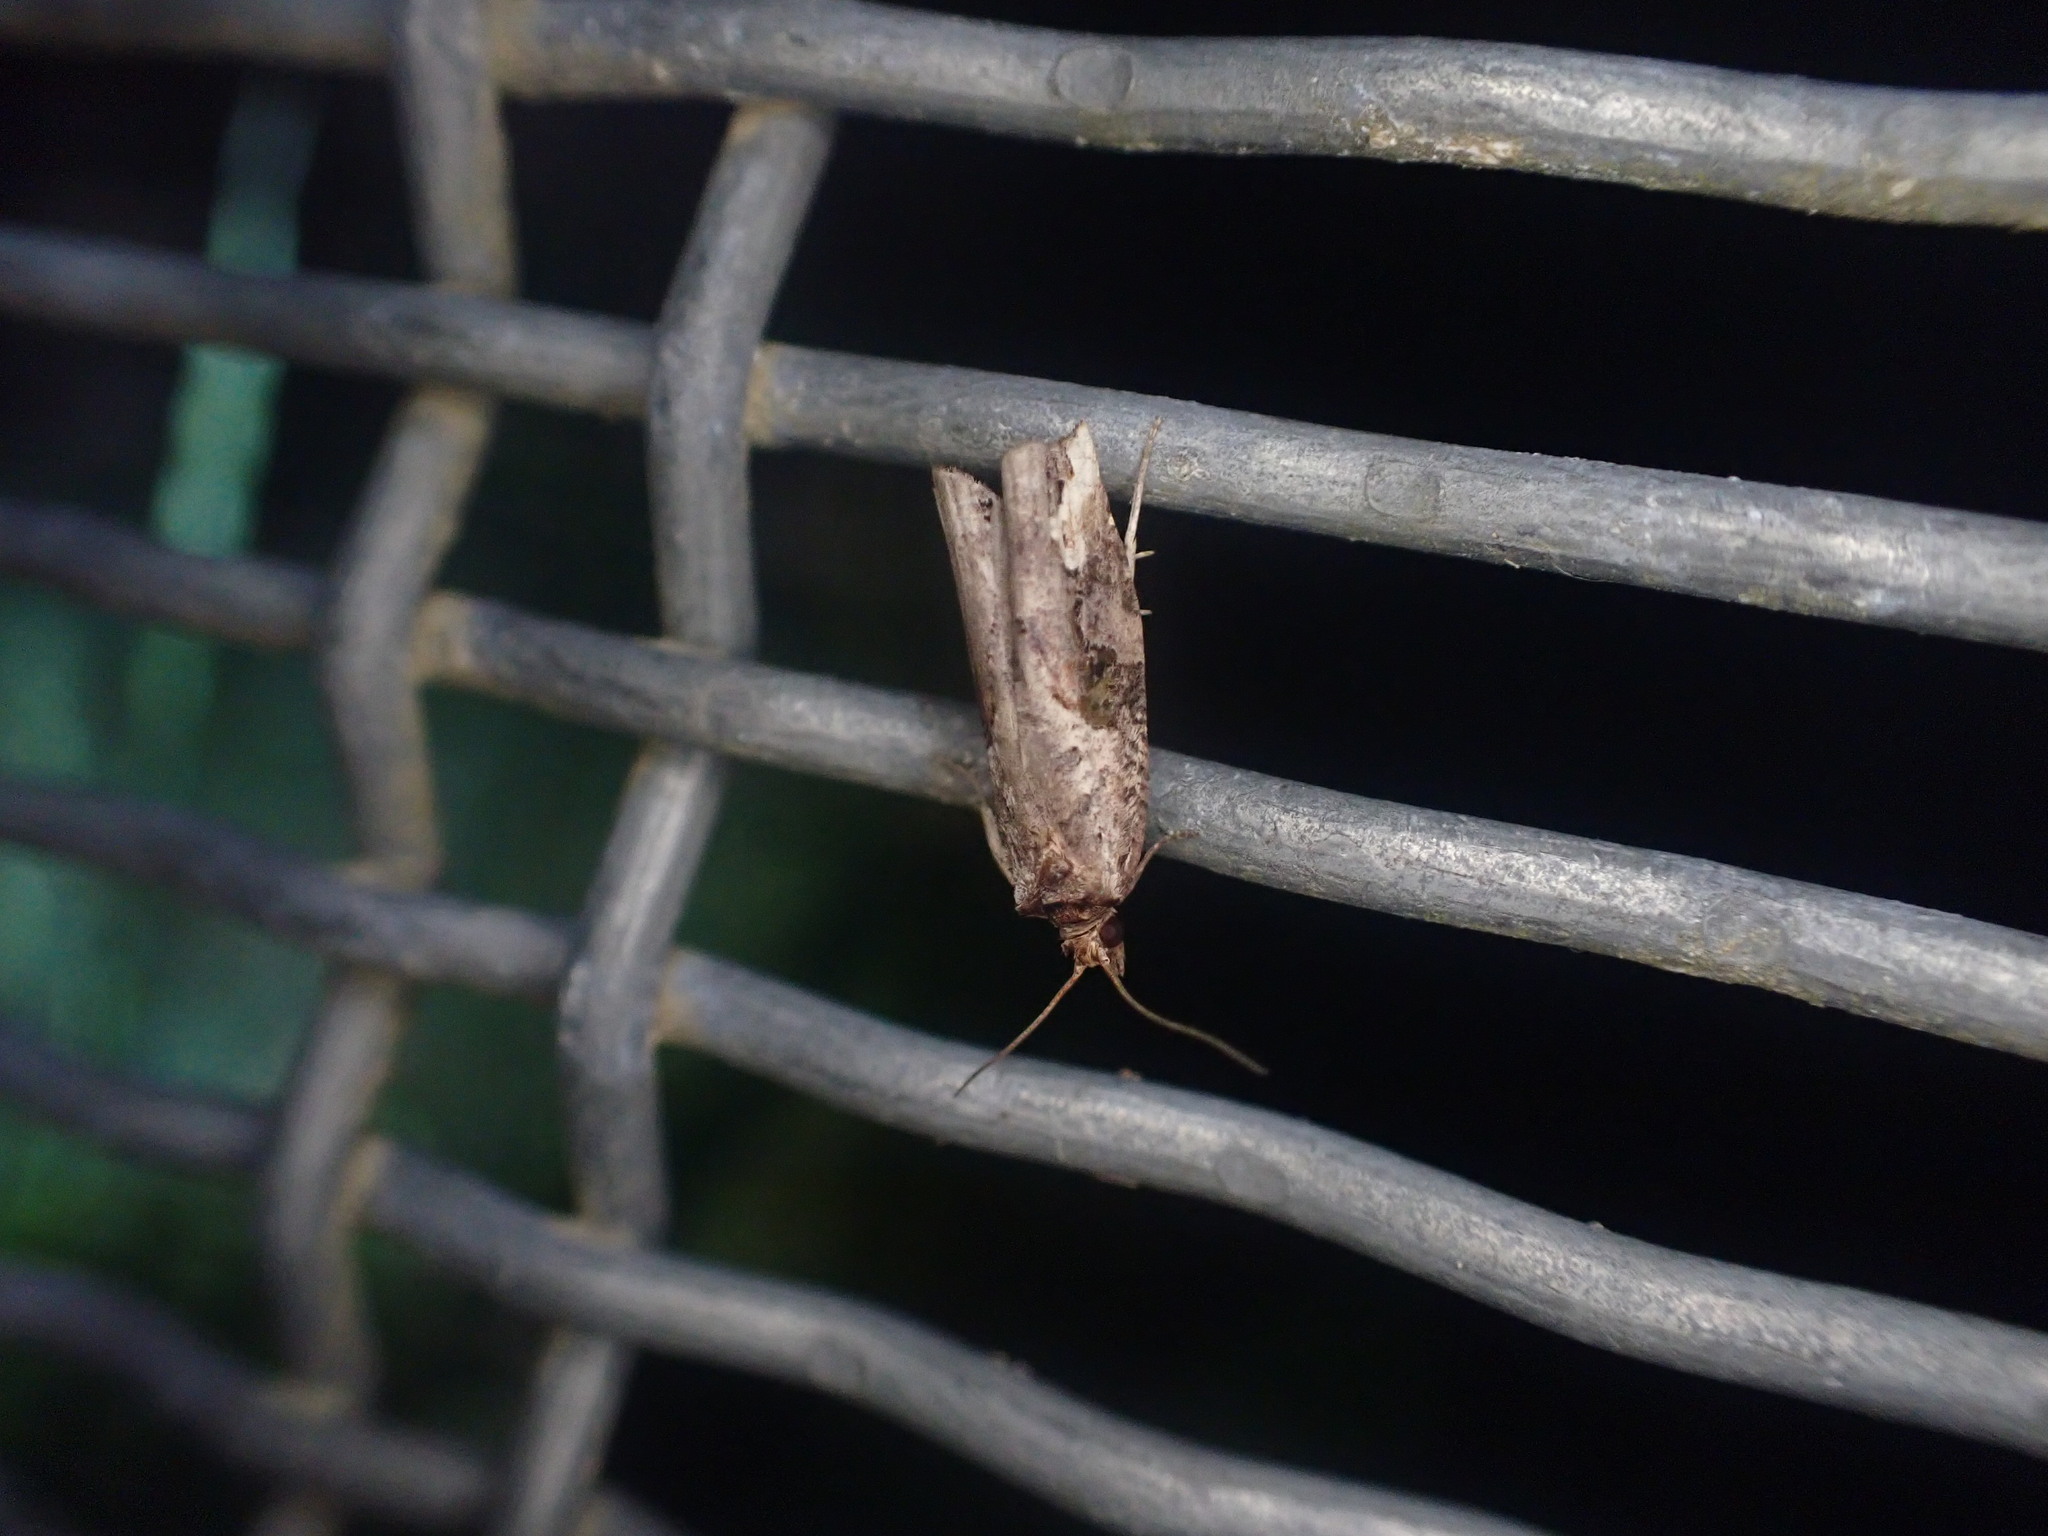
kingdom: Animalia
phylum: Arthropoda
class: Insecta
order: Lepidoptera
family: Tortricidae
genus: Epalxiphora
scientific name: Epalxiphora axenana
